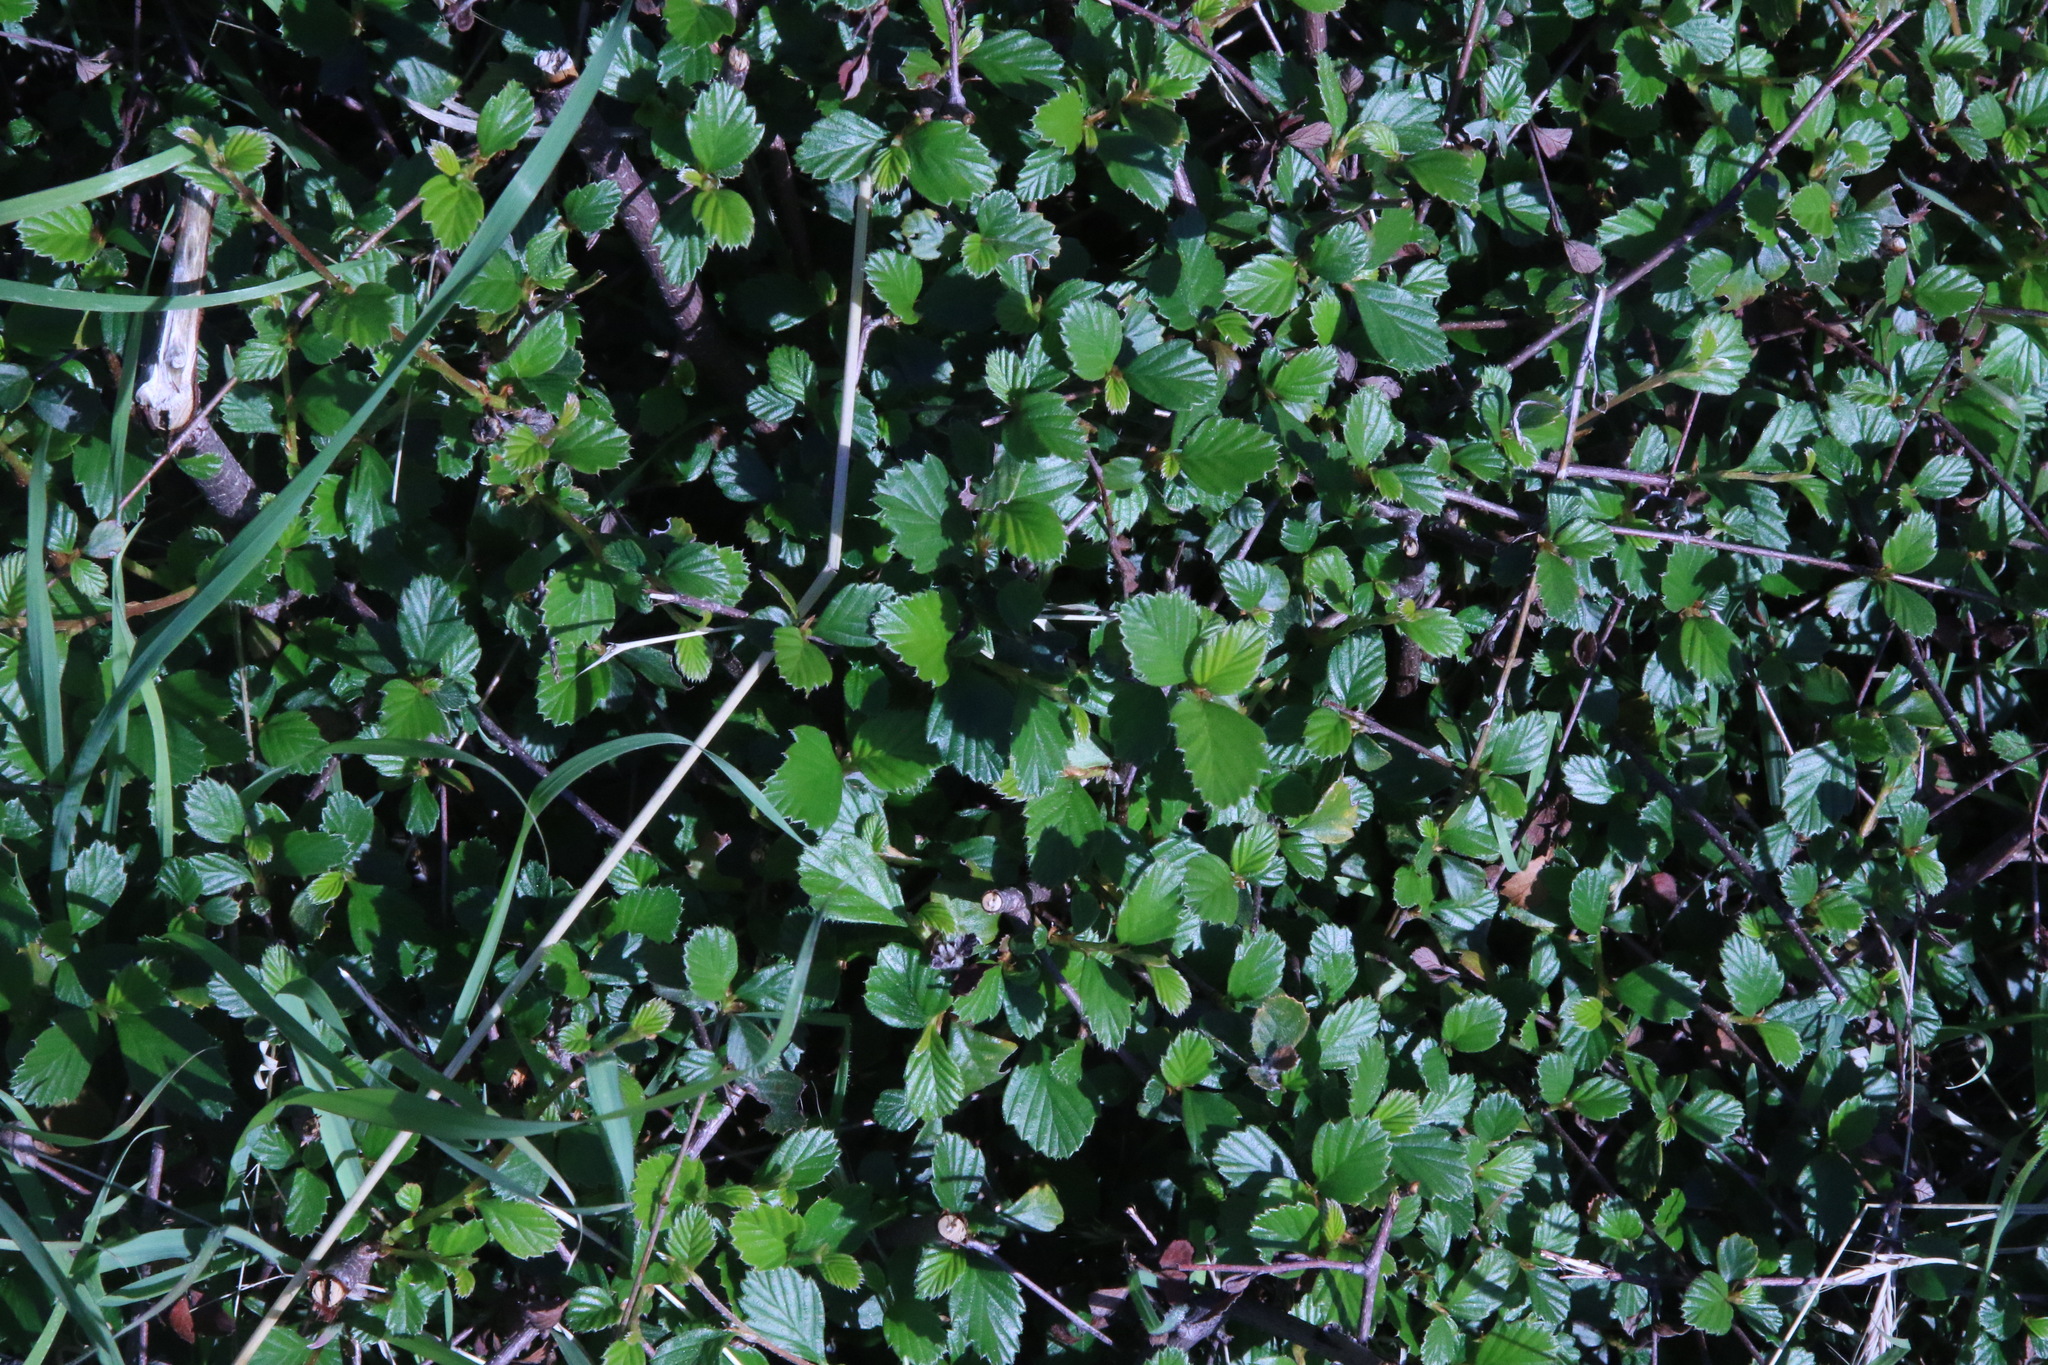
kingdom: Plantae
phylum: Tracheophyta
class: Magnoliopsida
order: Rosales
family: Rosaceae
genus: Cercocarpus
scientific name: Cercocarpus betuloides
